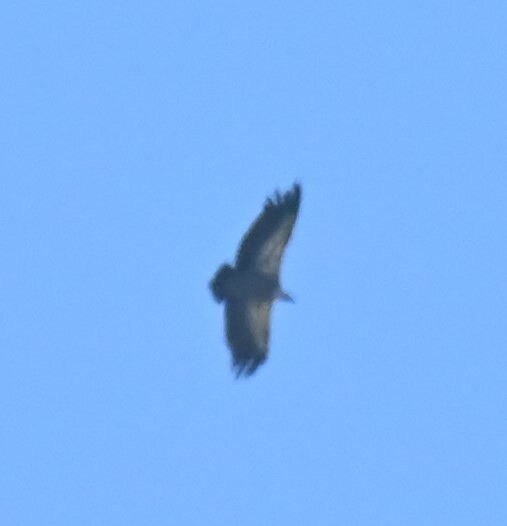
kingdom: Animalia
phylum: Chordata
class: Aves
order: Accipitriformes
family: Accipitridae
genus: Gyps
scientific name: Gyps fulvus
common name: Griffon vulture
